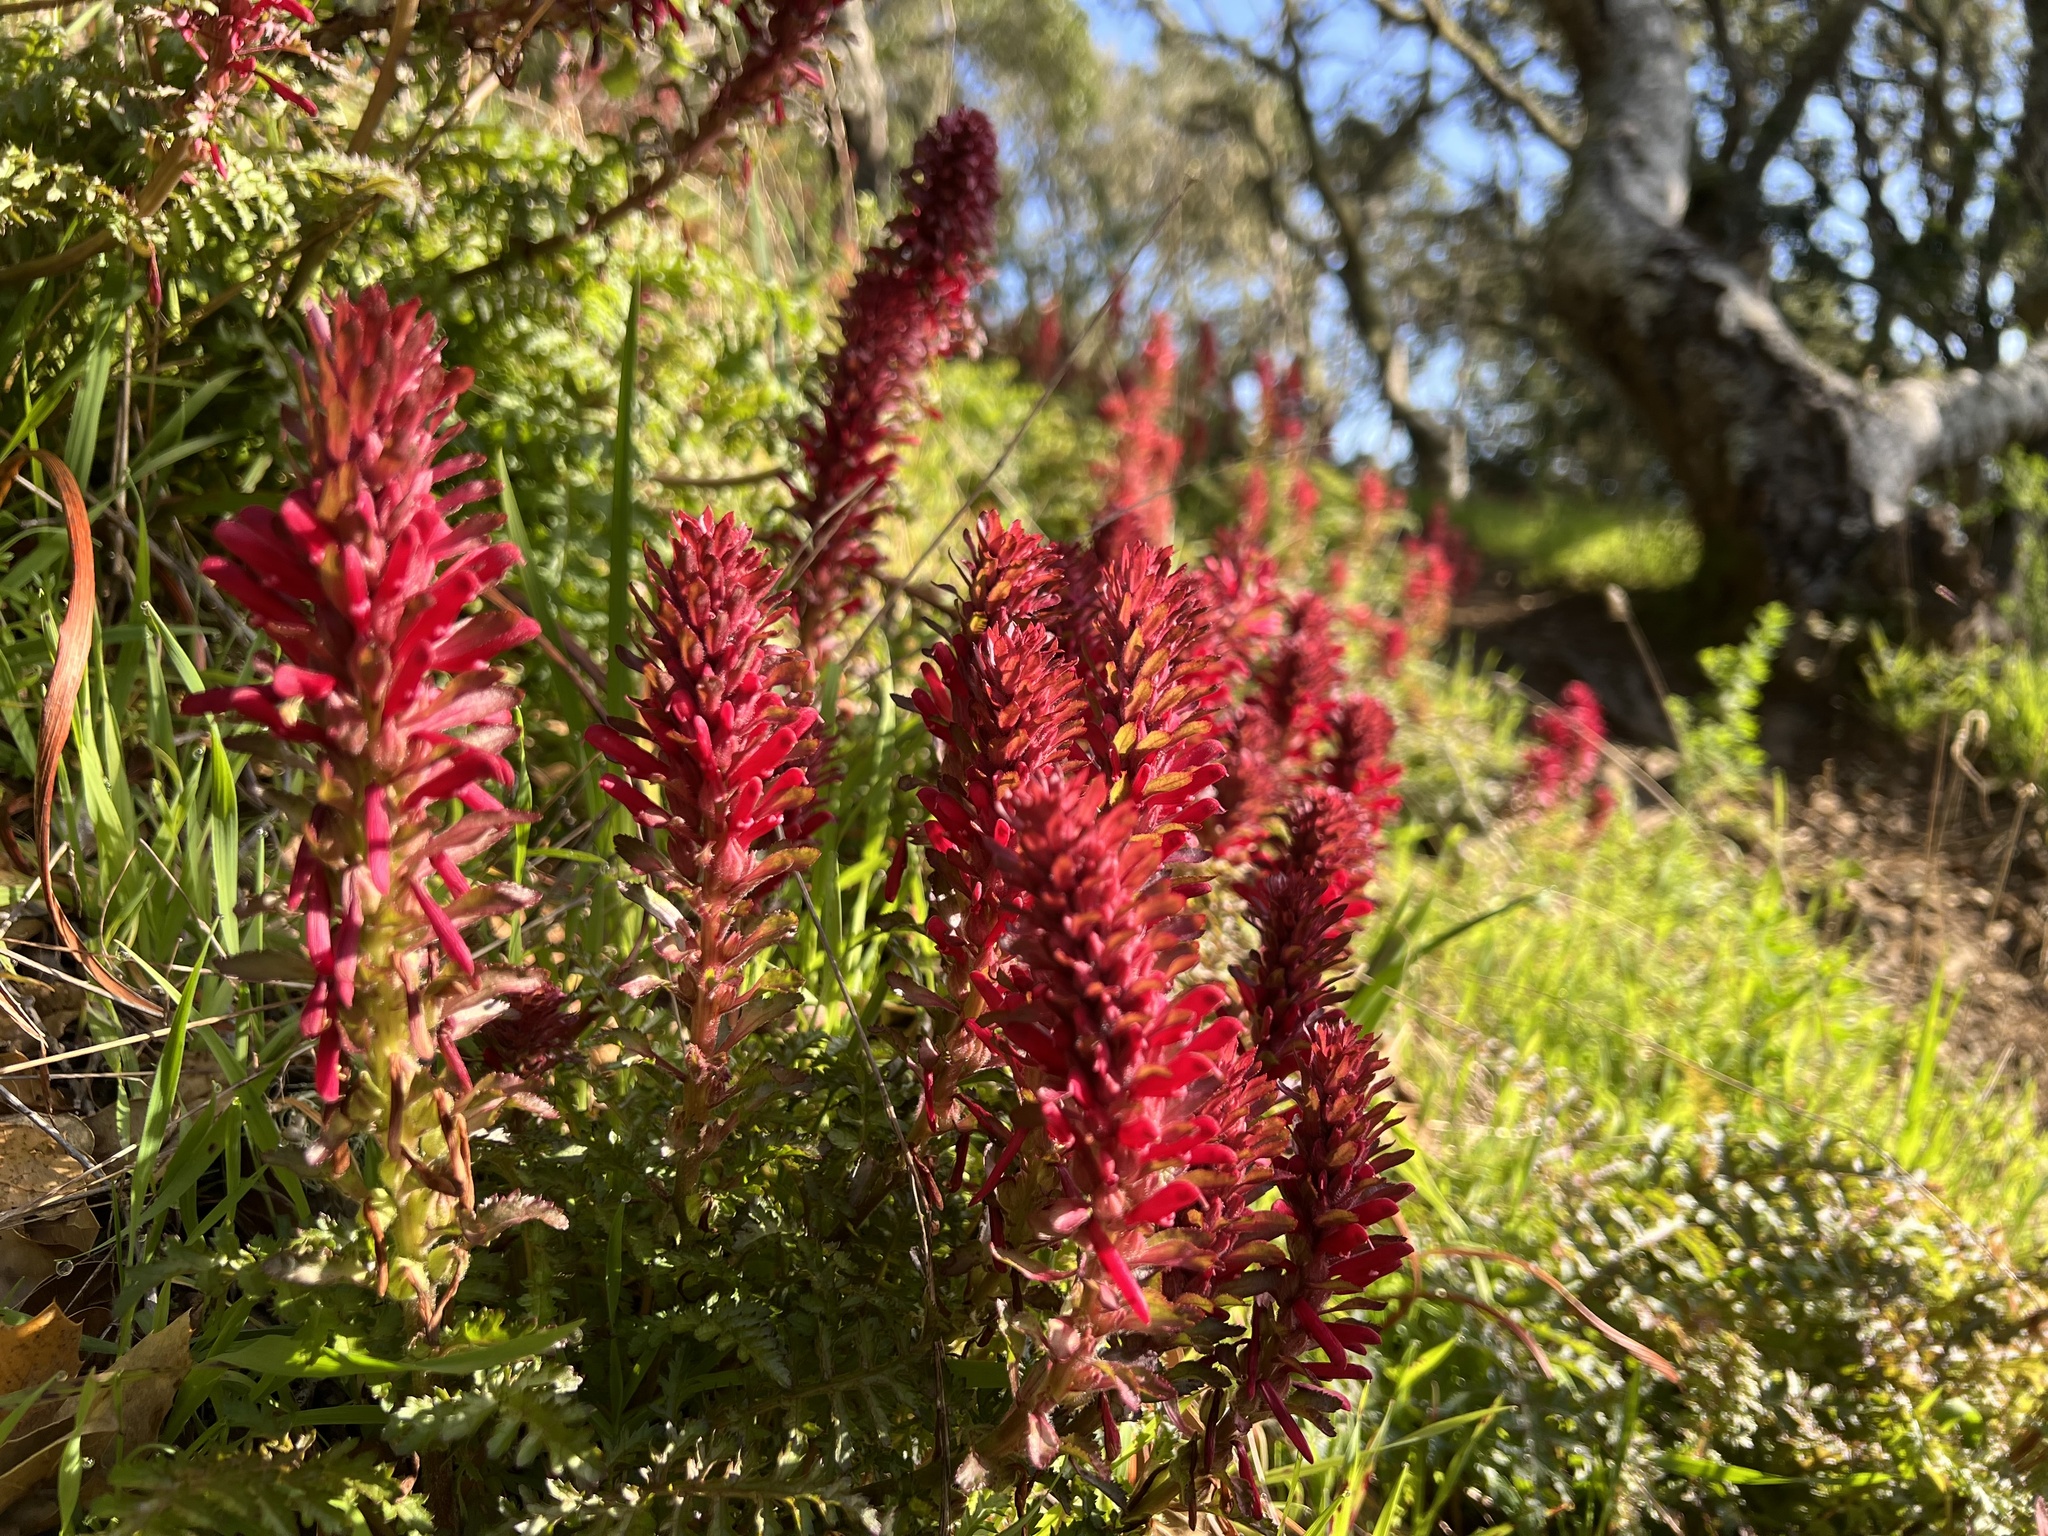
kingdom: Plantae
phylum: Tracheophyta
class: Magnoliopsida
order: Lamiales
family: Orobanchaceae
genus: Pedicularis
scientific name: Pedicularis densiflora
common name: Indian warrior
